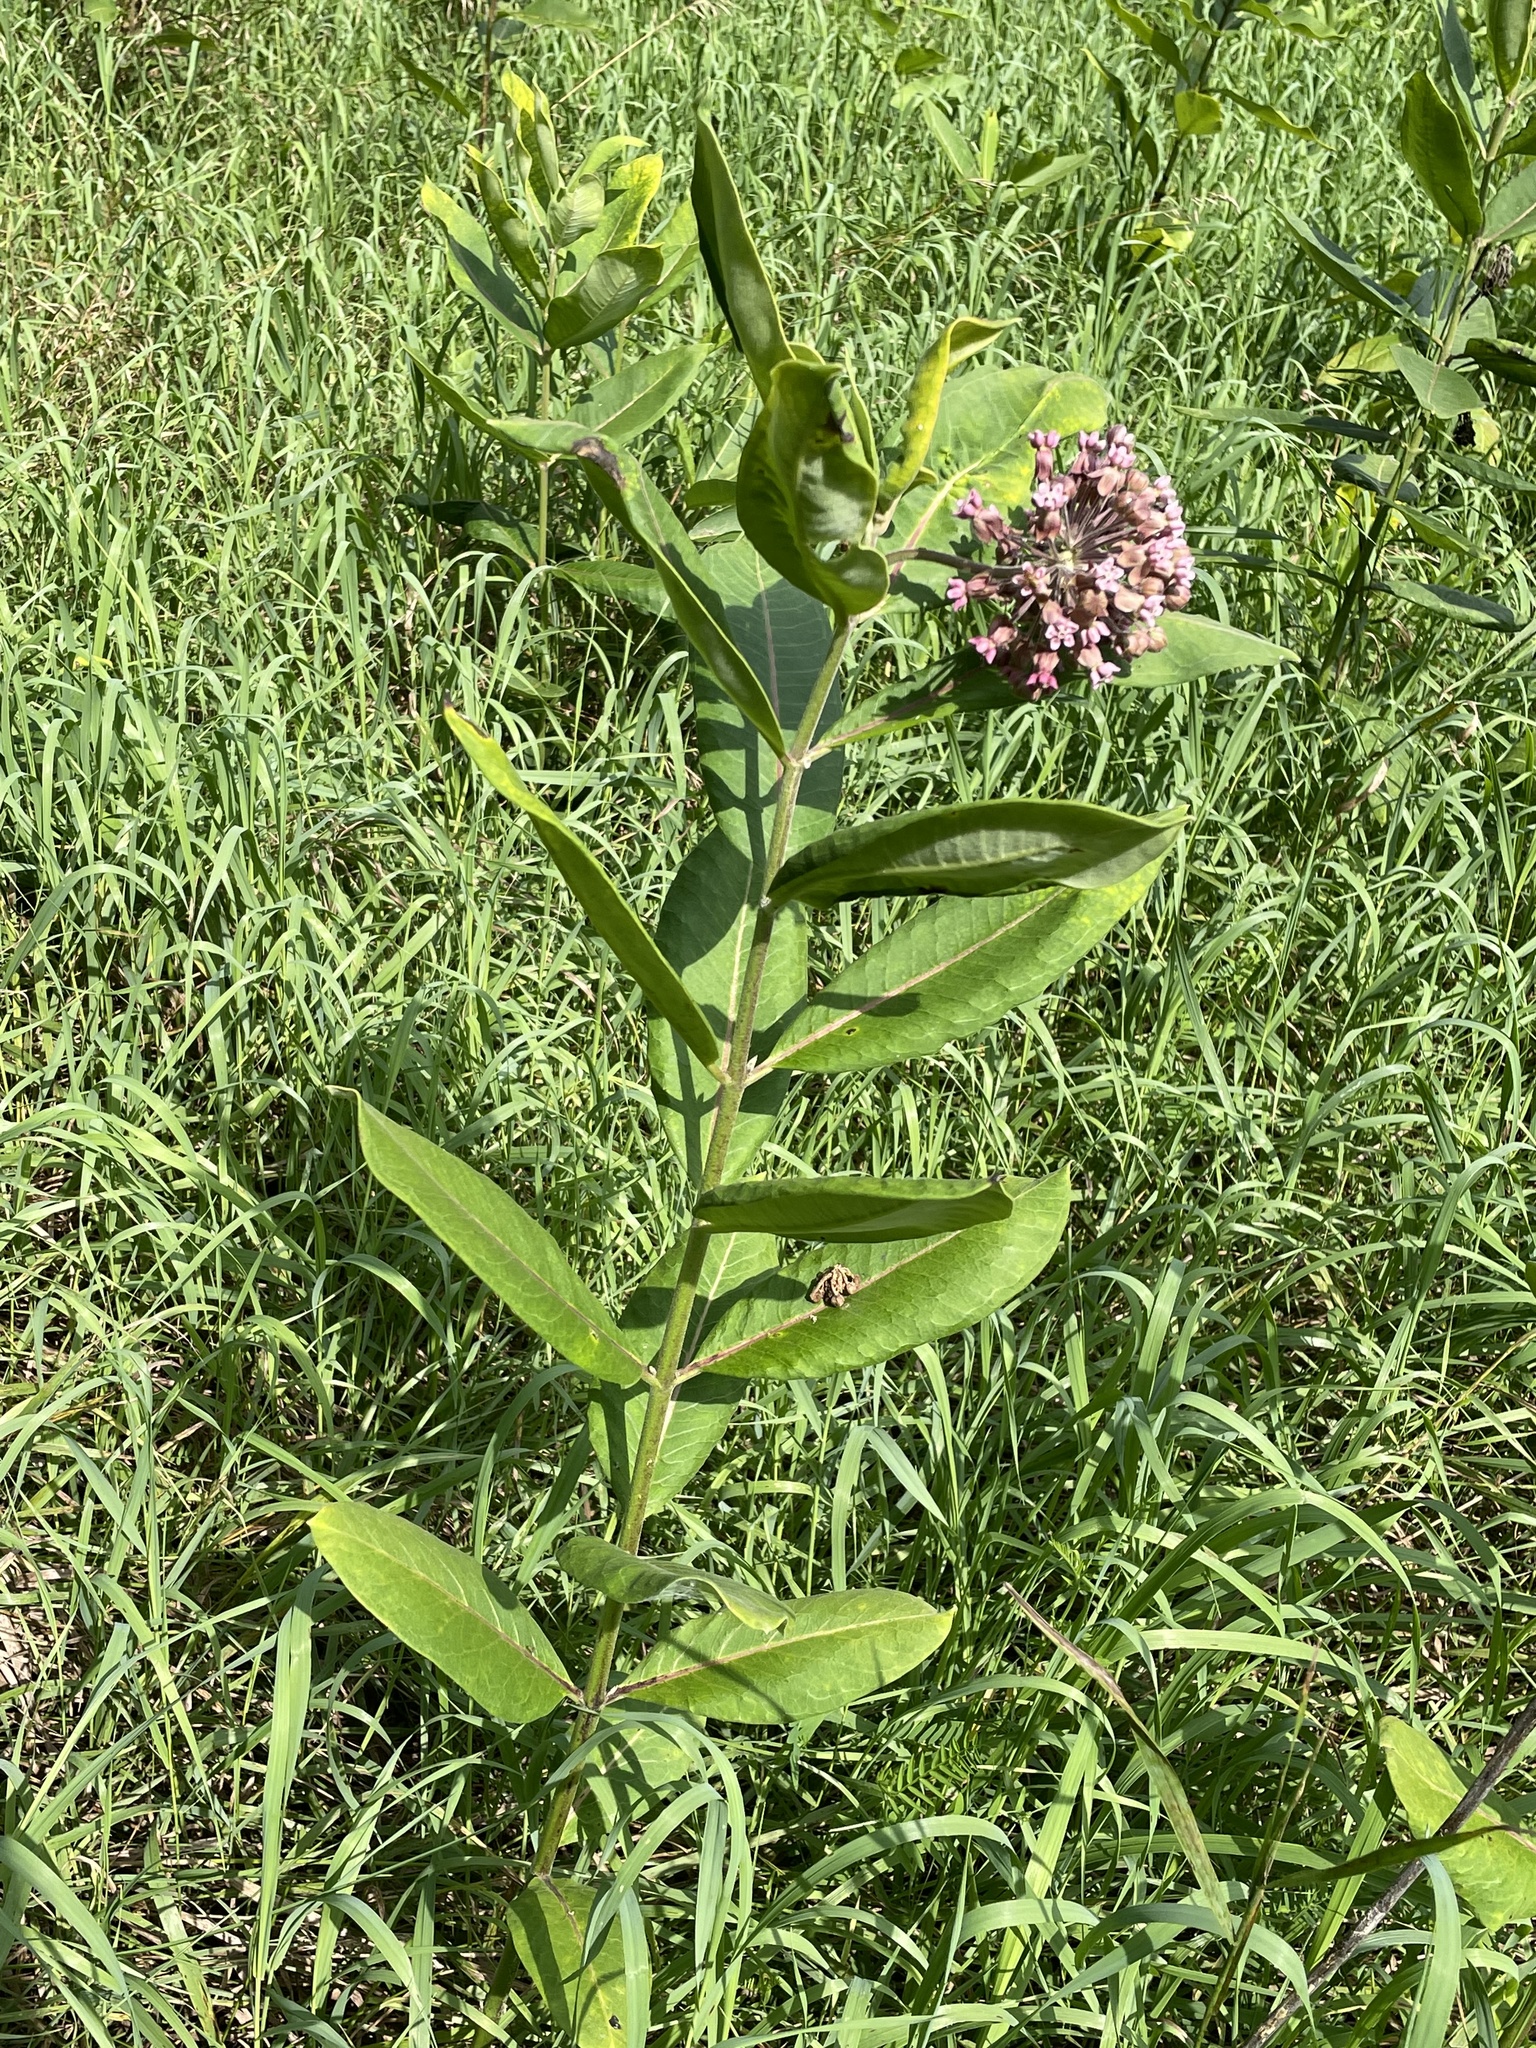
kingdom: Plantae
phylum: Tracheophyta
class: Magnoliopsida
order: Gentianales
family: Apocynaceae
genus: Asclepias
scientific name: Asclepias syriaca
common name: Common milkweed
